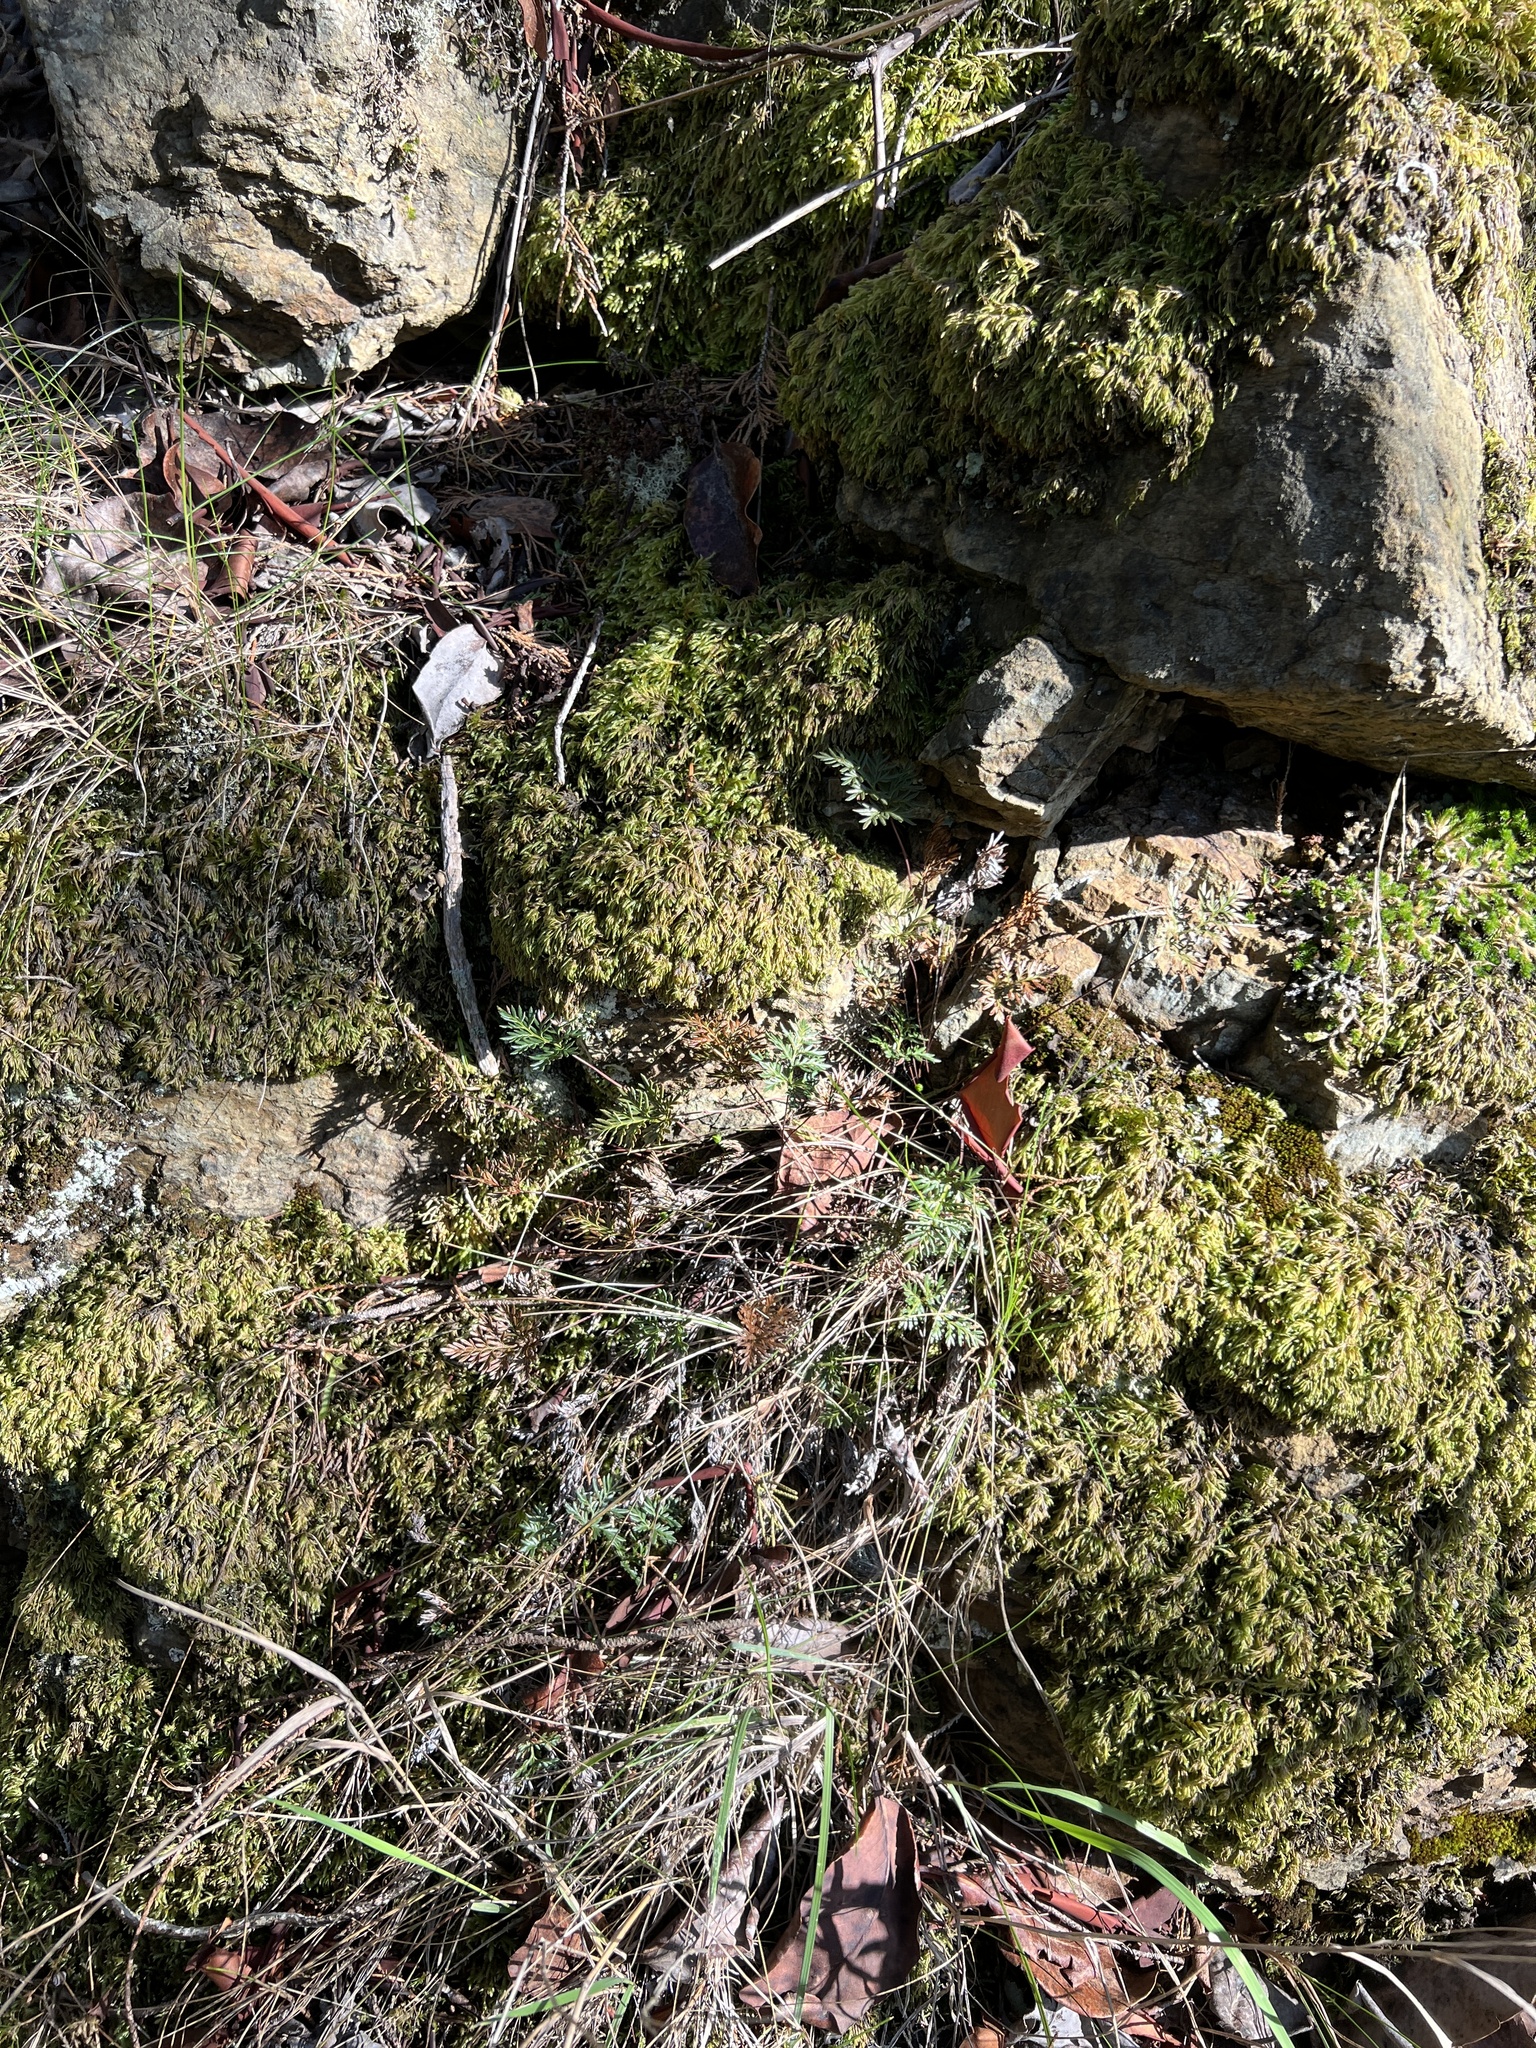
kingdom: Plantae
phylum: Tracheophyta
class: Polypodiopsida
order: Polypodiales
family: Pteridaceae
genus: Aspidotis
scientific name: Aspidotis densa
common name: Indian's dream
